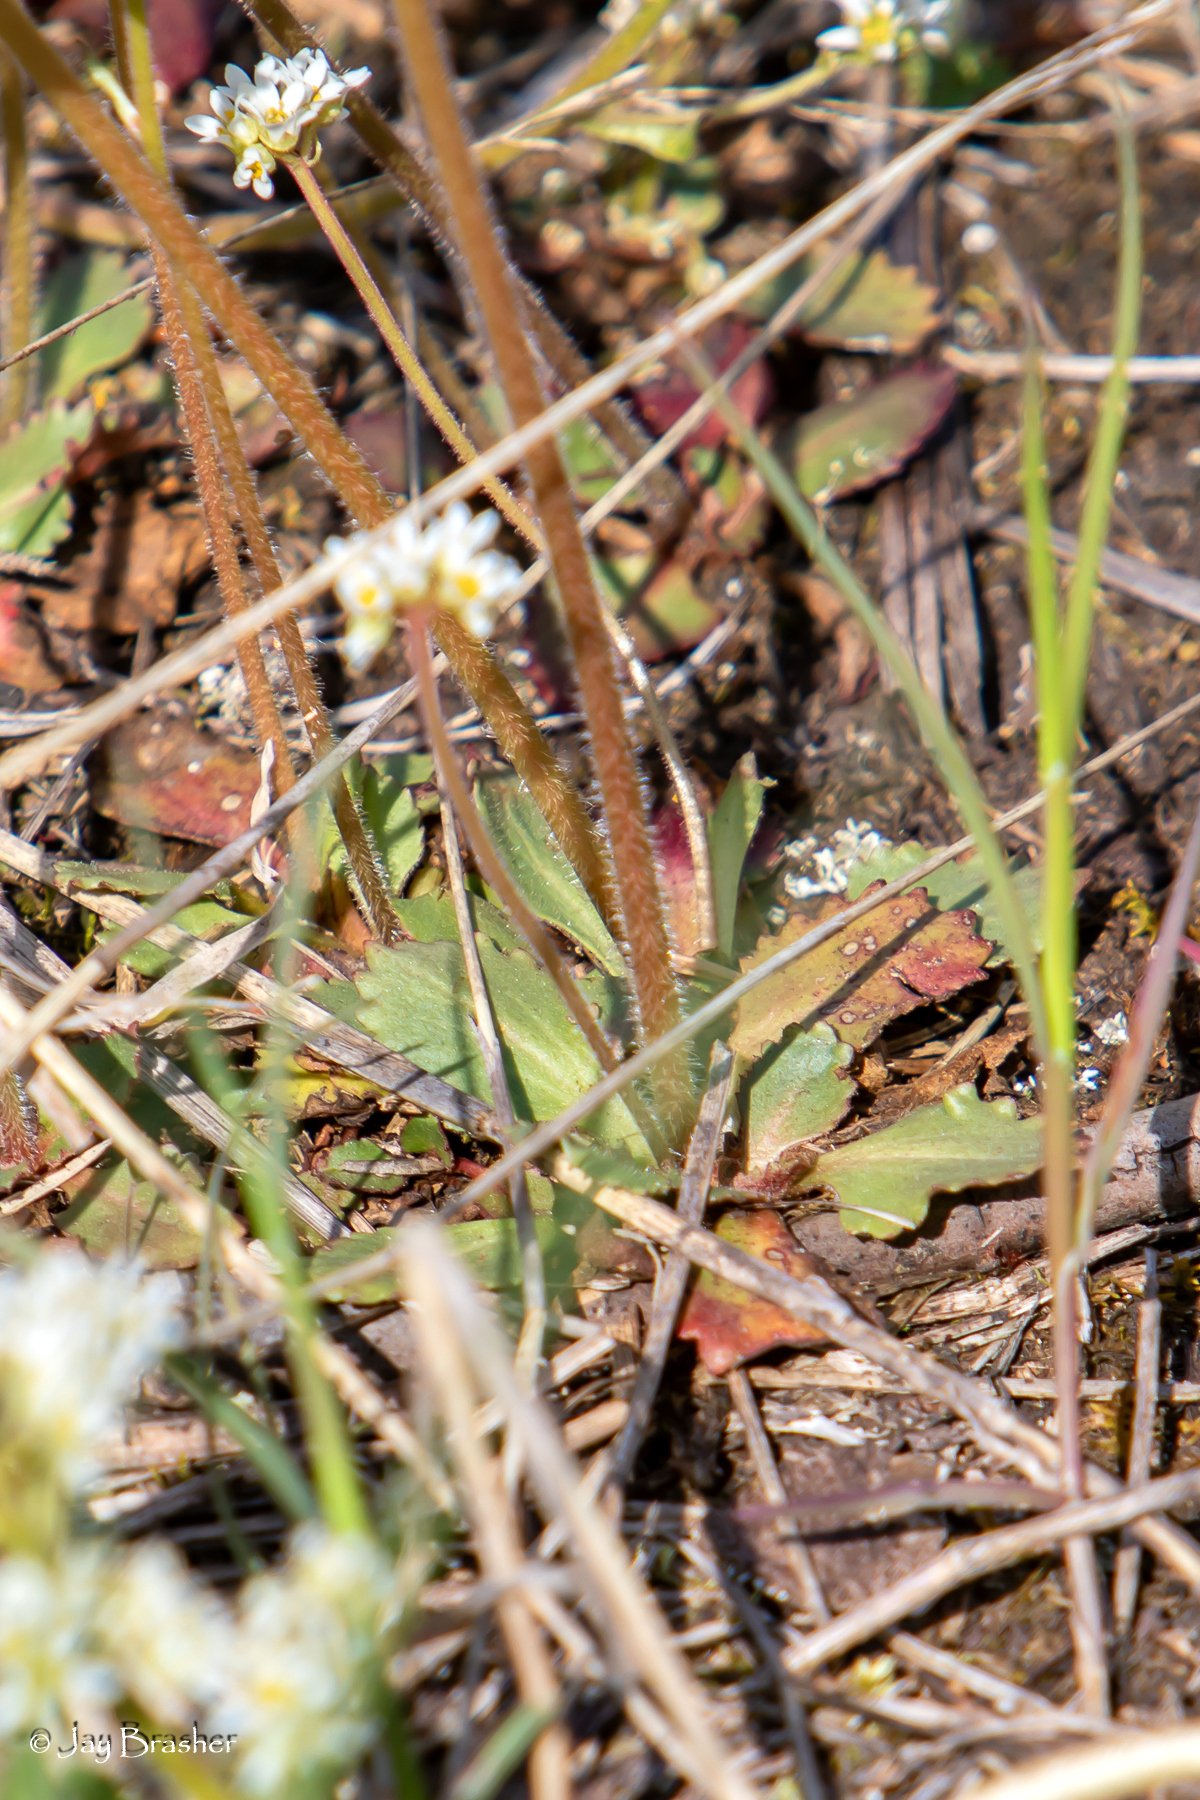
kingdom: Plantae
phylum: Tracheophyta
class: Magnoliopsida
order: Saxifragales
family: Saxifragaceae
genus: Micranthes
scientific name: Micranthes virginiensis
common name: Early saxifrage
